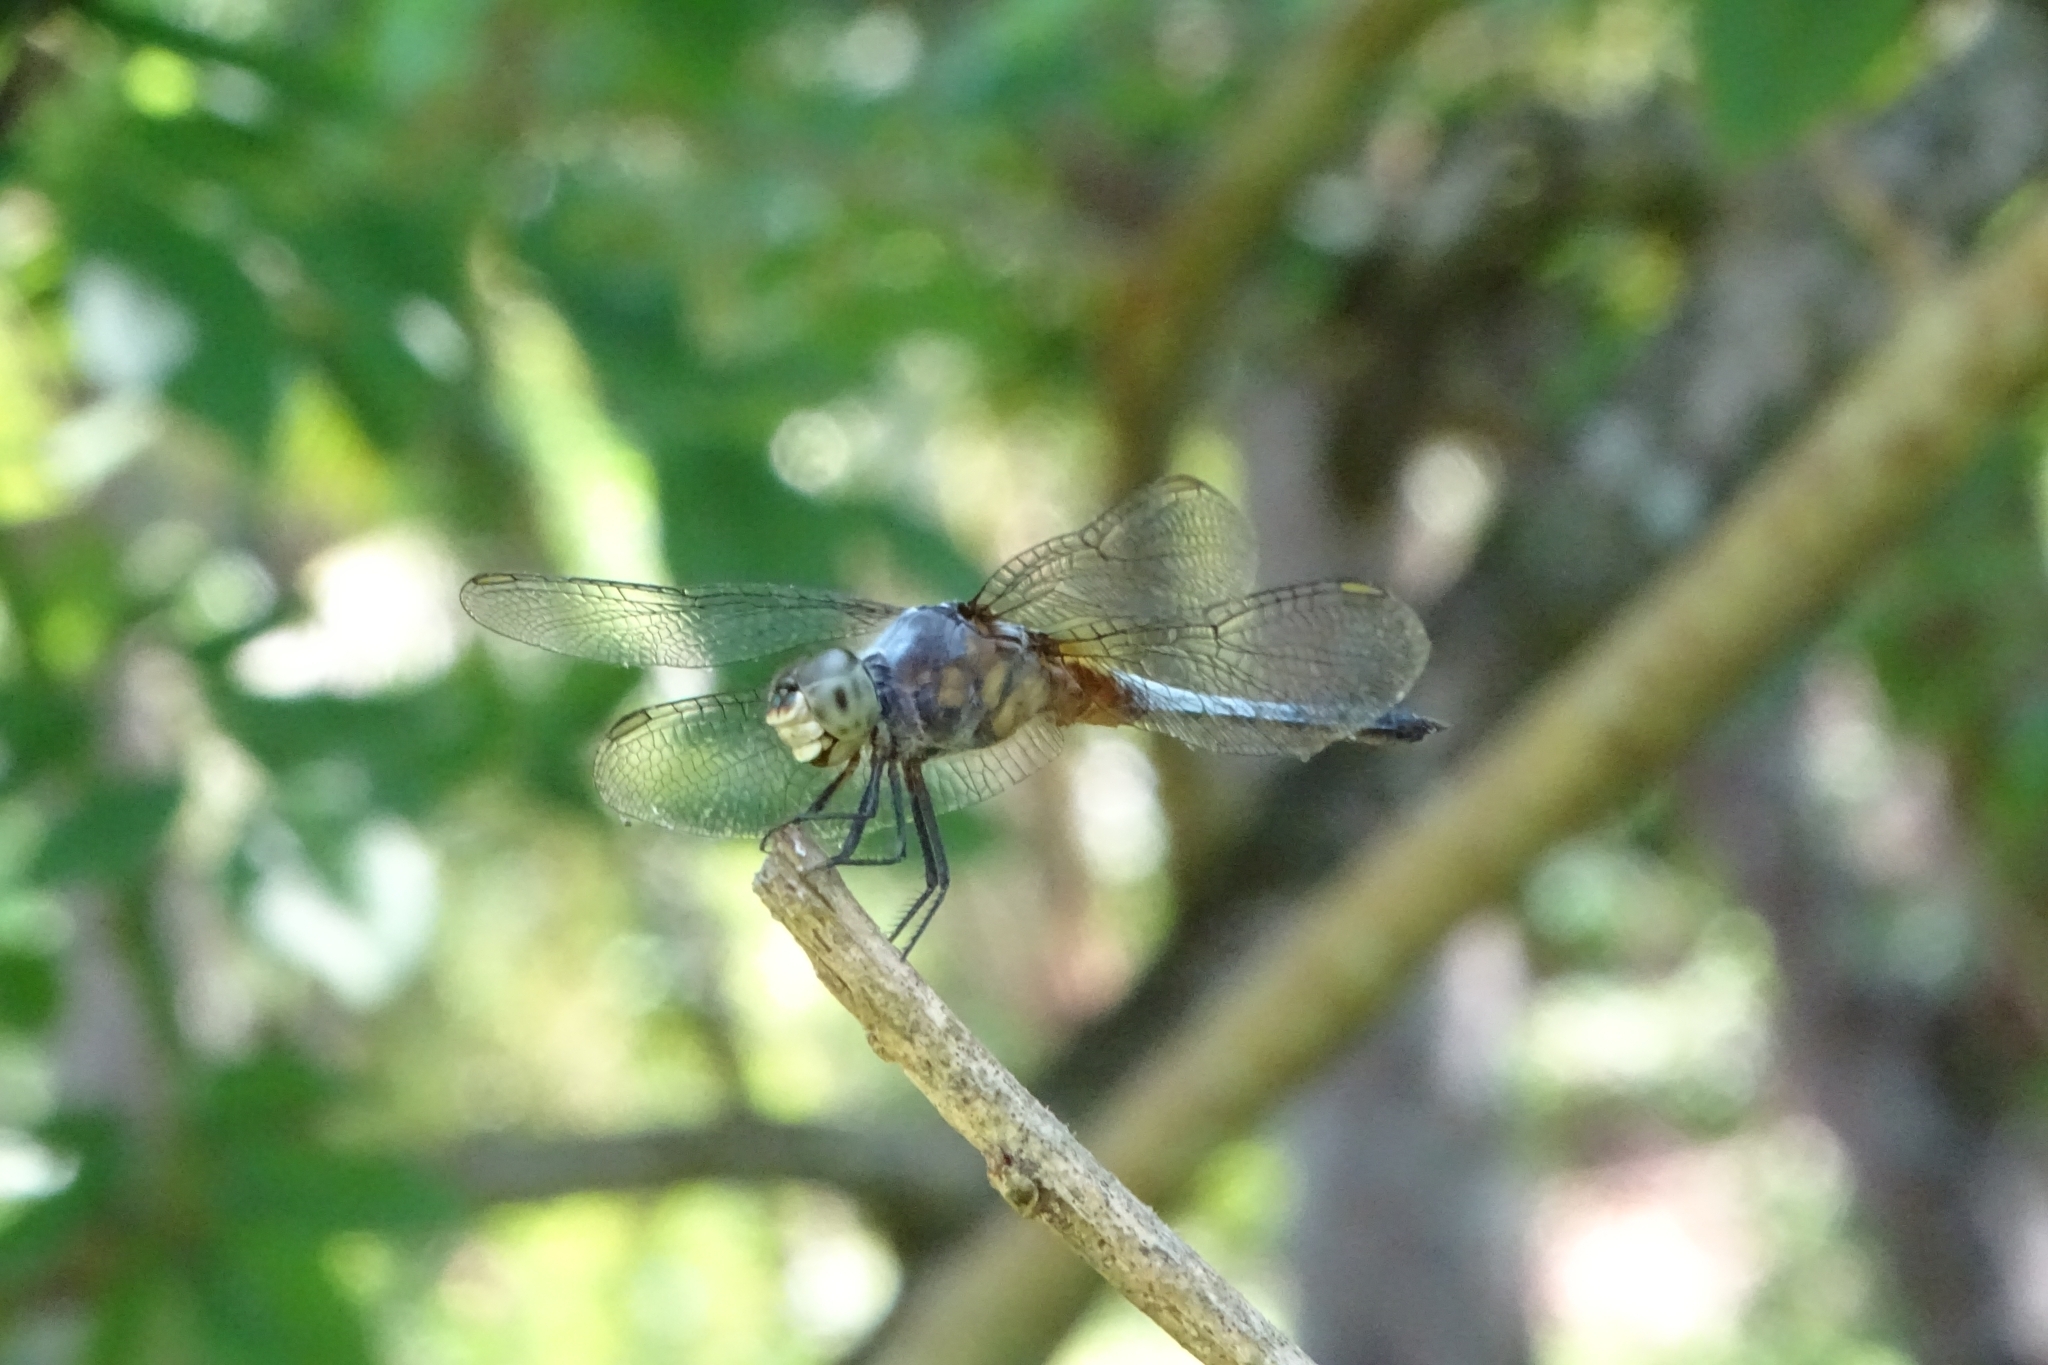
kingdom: Animalia
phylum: Arthropoda
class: Insecta
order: Odonata
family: Libellulidae
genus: Brachydiplax
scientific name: Brachydiplax chalybea
